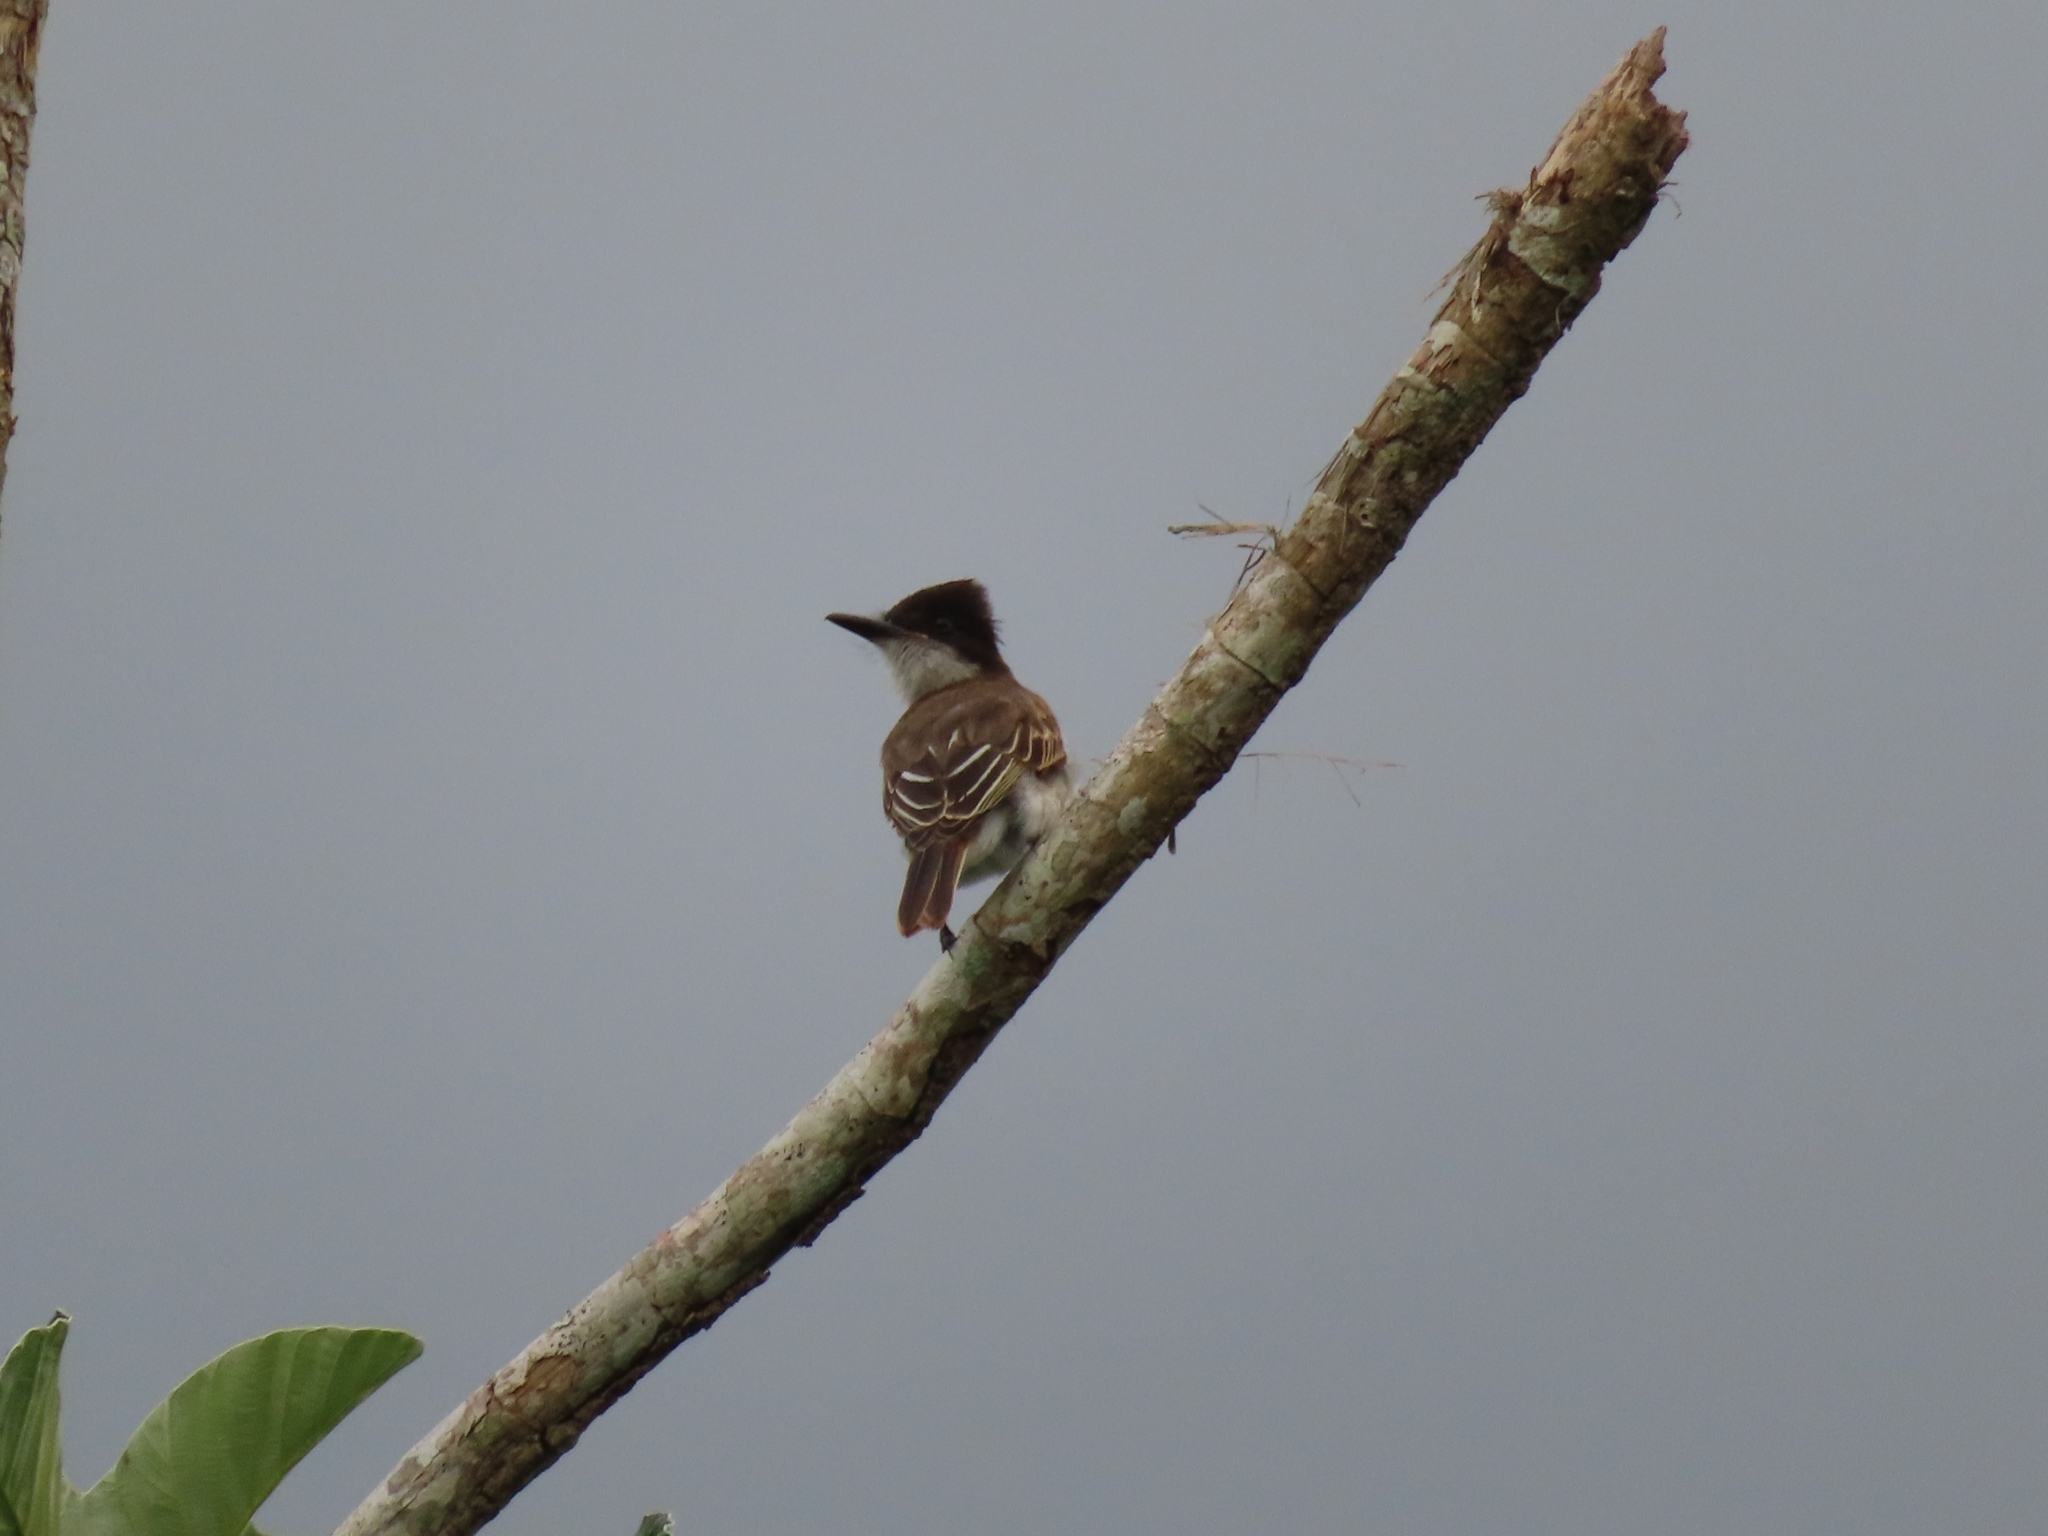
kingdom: Animalia
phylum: Chordata
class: Aves
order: Passeriformes
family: Tyrannidae
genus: Tyrannus
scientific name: Tyrannus caudifasciatus
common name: Loggerhead kingbird
